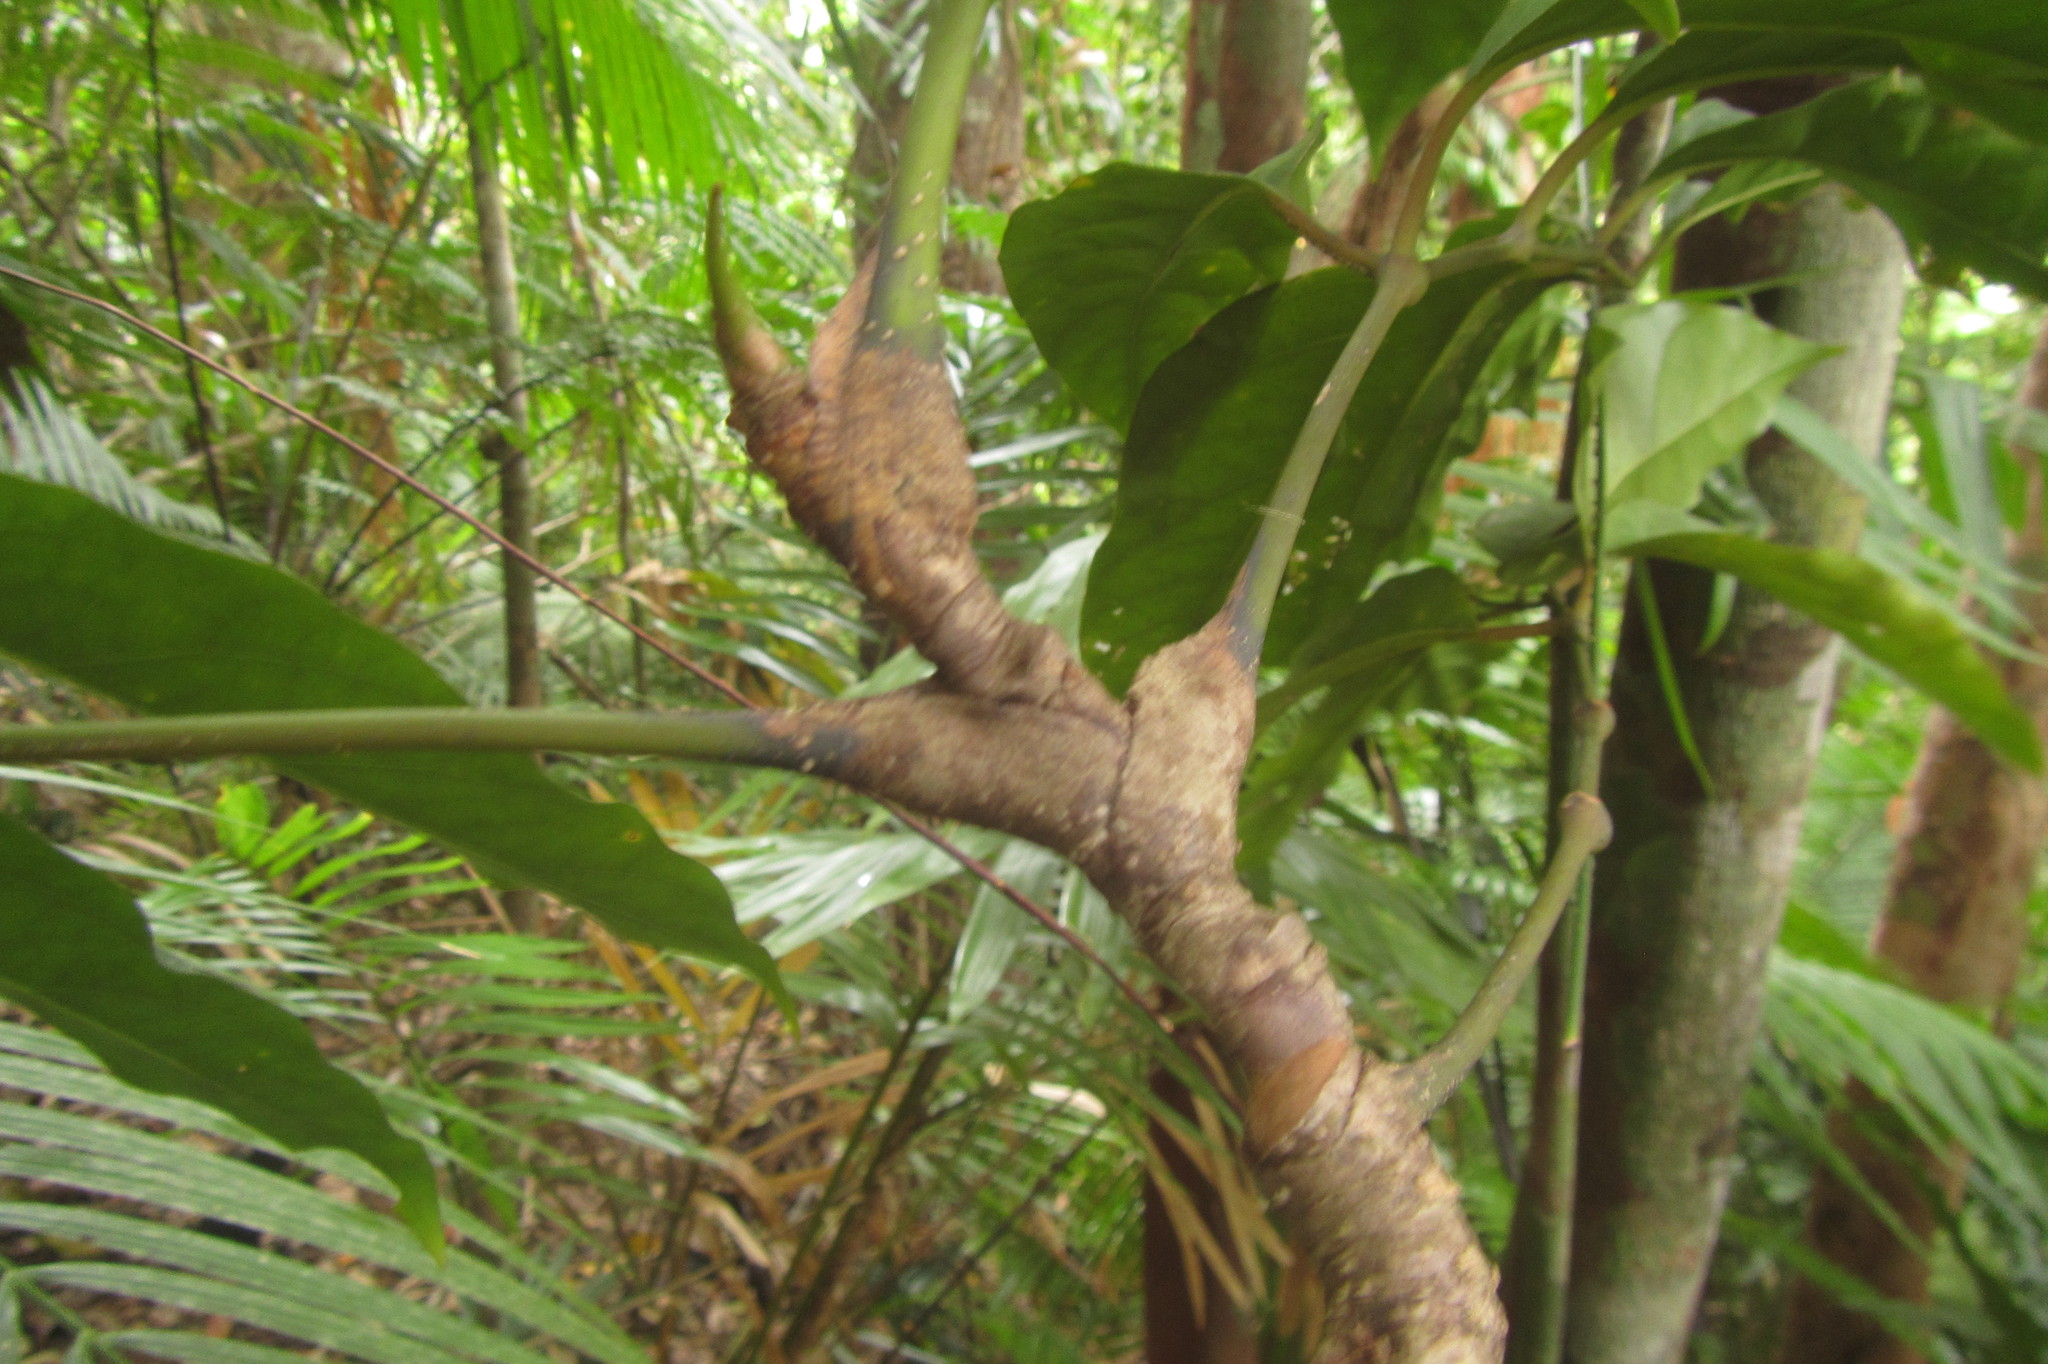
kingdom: Plantae
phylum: Tracheophyta
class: Magnoliopsida
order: Apiales
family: Araliaceae
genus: Polyscias
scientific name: Polyscias purpurea
